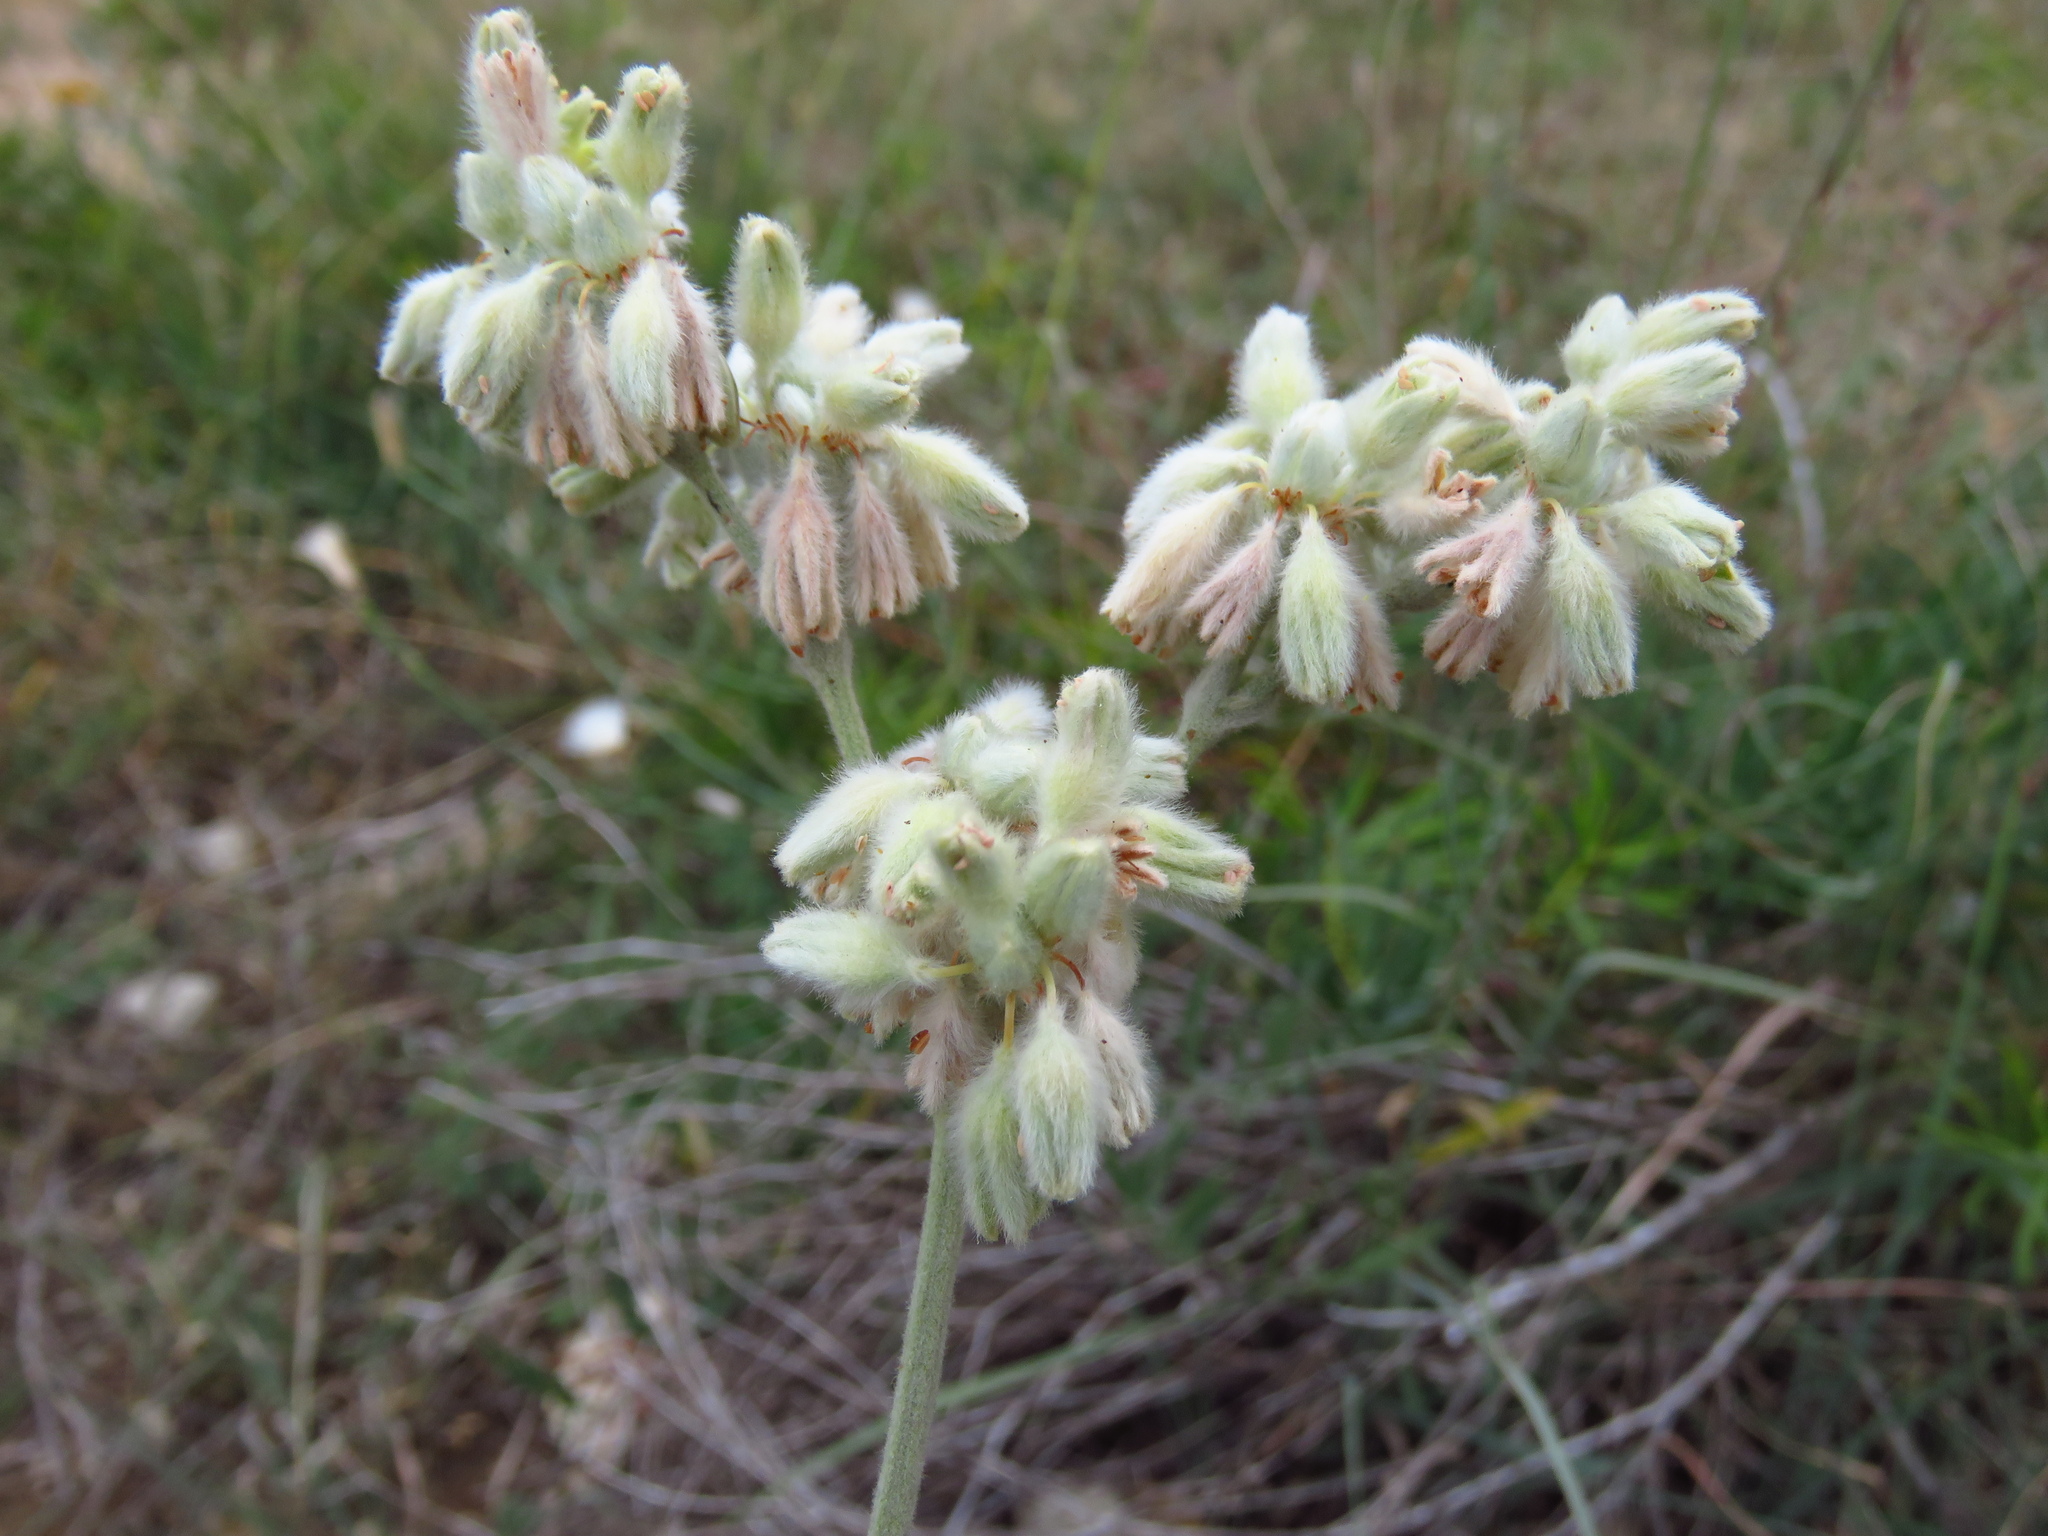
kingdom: Plantae
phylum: Tracheophyta
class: Magnoliopsida
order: Caryophyllales
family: Polygonaceae
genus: Eriogonum
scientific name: Eriogonum longifolium
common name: Longleaf wild buckwheat
